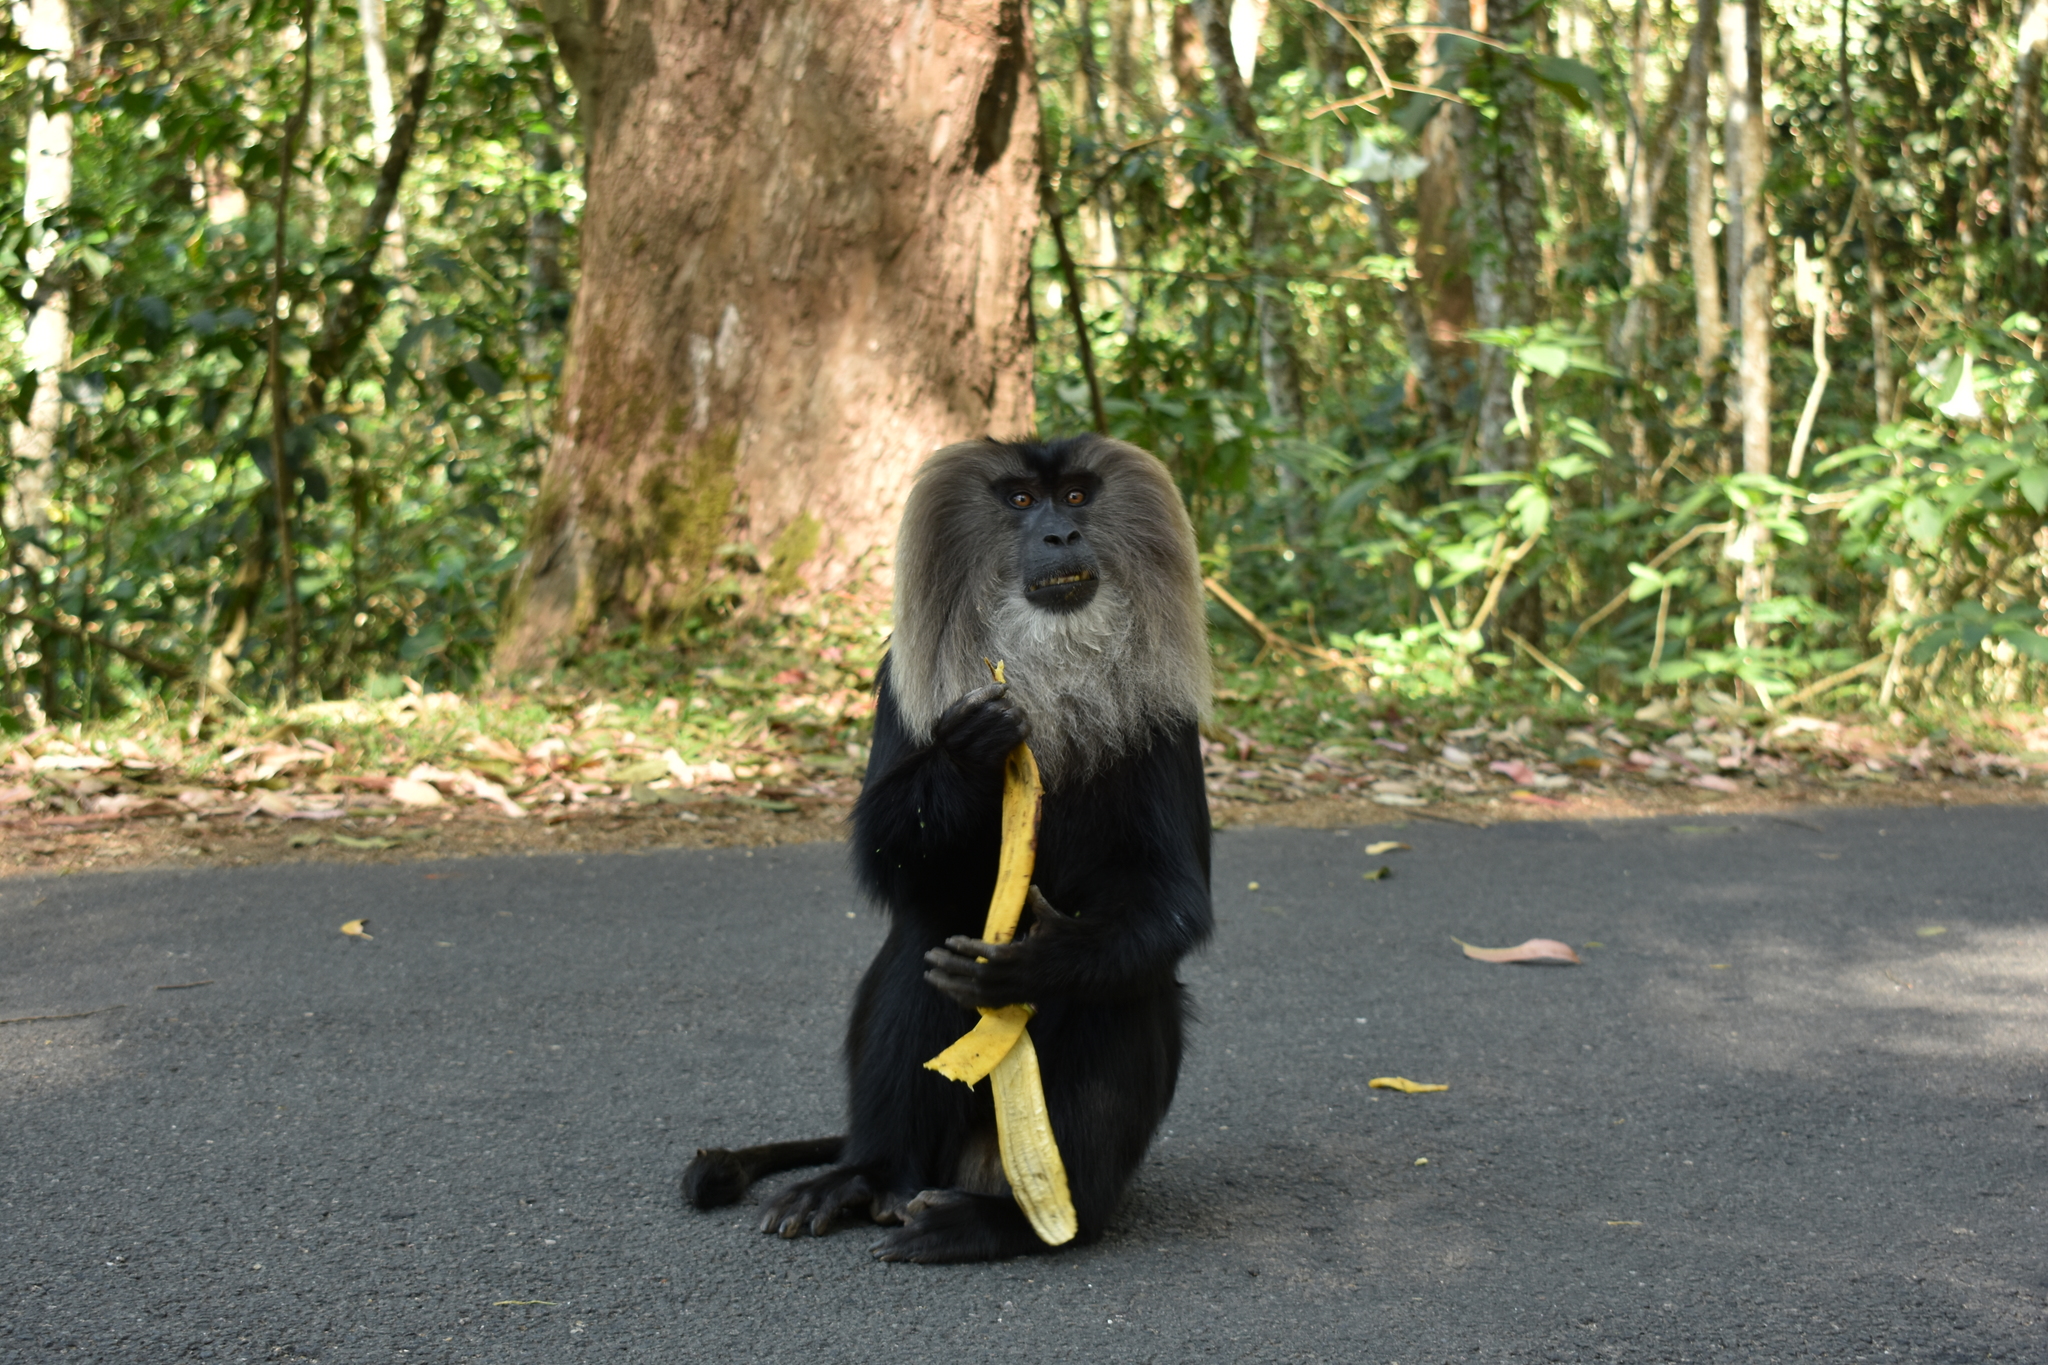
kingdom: Animalia
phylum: Chordata
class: Mammalia
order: Primates
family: Cercopithecidae
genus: Macaca
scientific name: Macaca silenus
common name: Lion-tailed macaque
